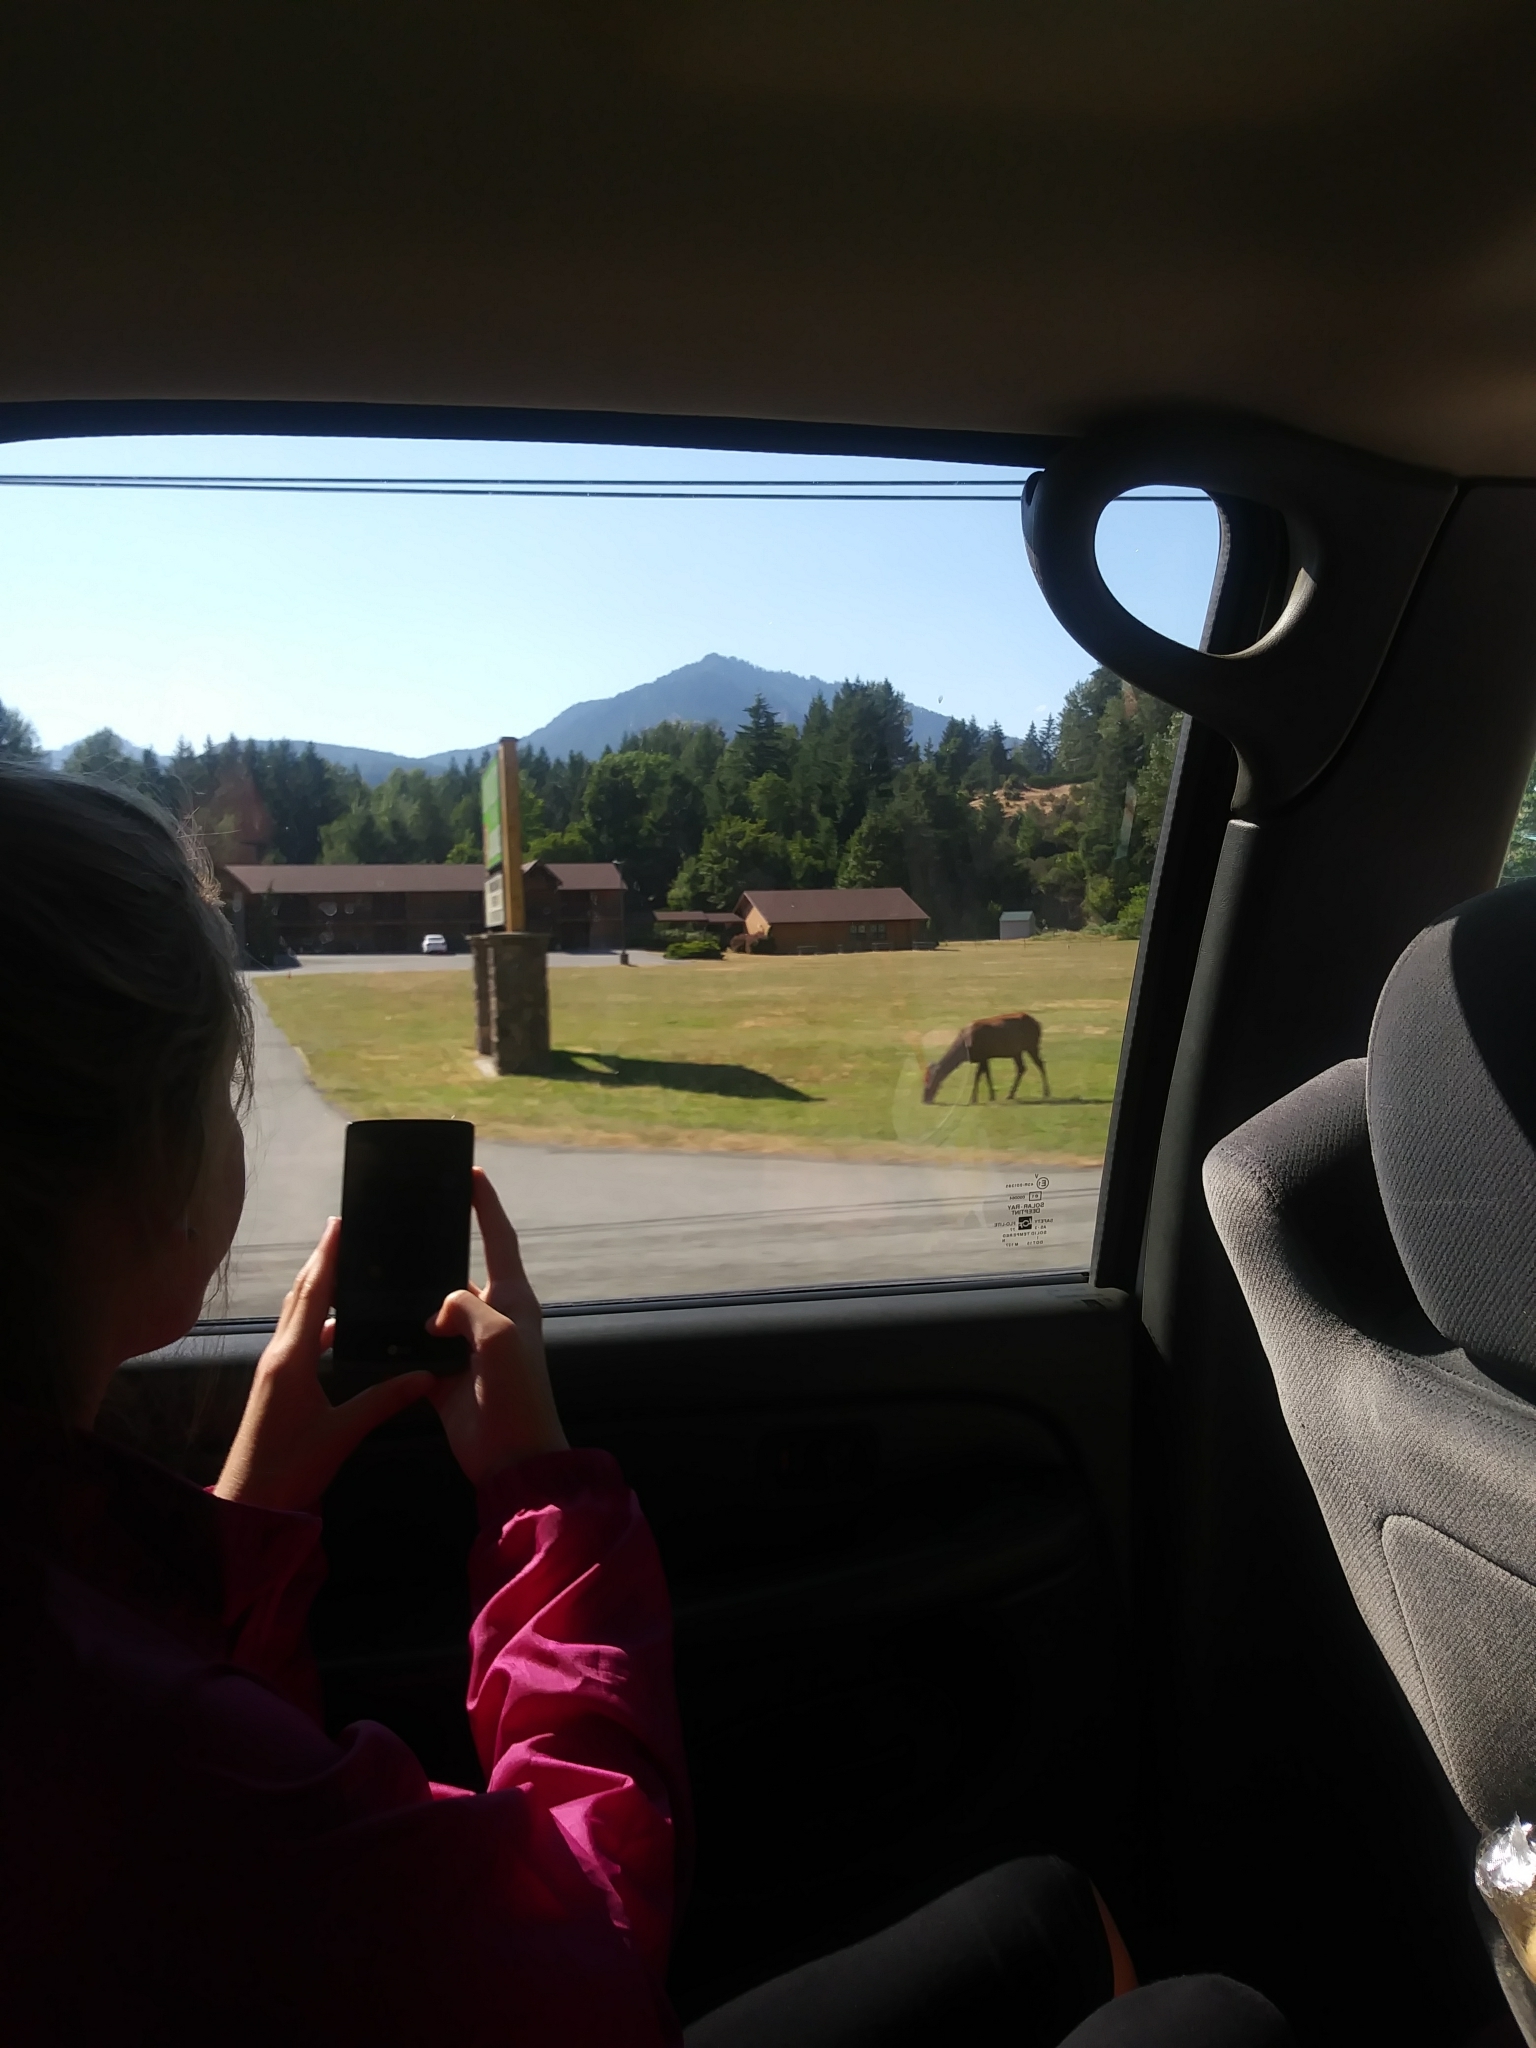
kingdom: Animalia
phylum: Chordata
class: Mammalia
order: Artiodactyla
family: Cervidae
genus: Cervus
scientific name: Cervus elaphus
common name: Red deer
